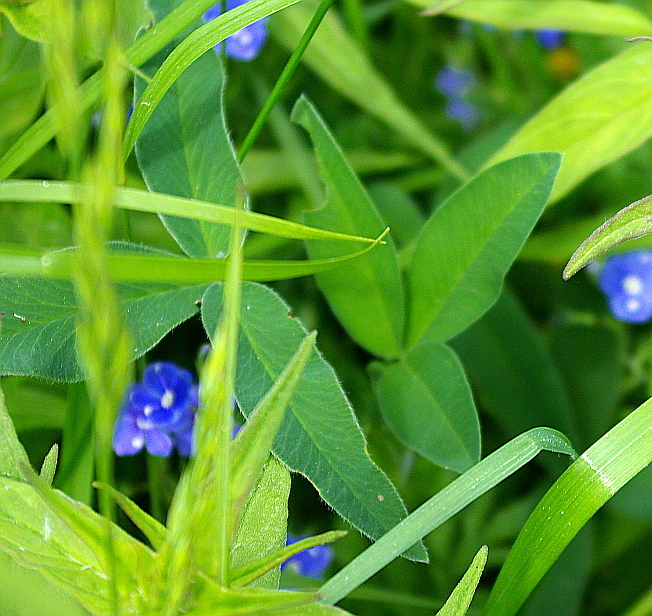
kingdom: Plantae
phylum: Tracheophyta
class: Magnoliopsida
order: Fabales
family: Fabaceae
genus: Trifolium
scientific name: Trifolium medium
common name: Zigzag clover
